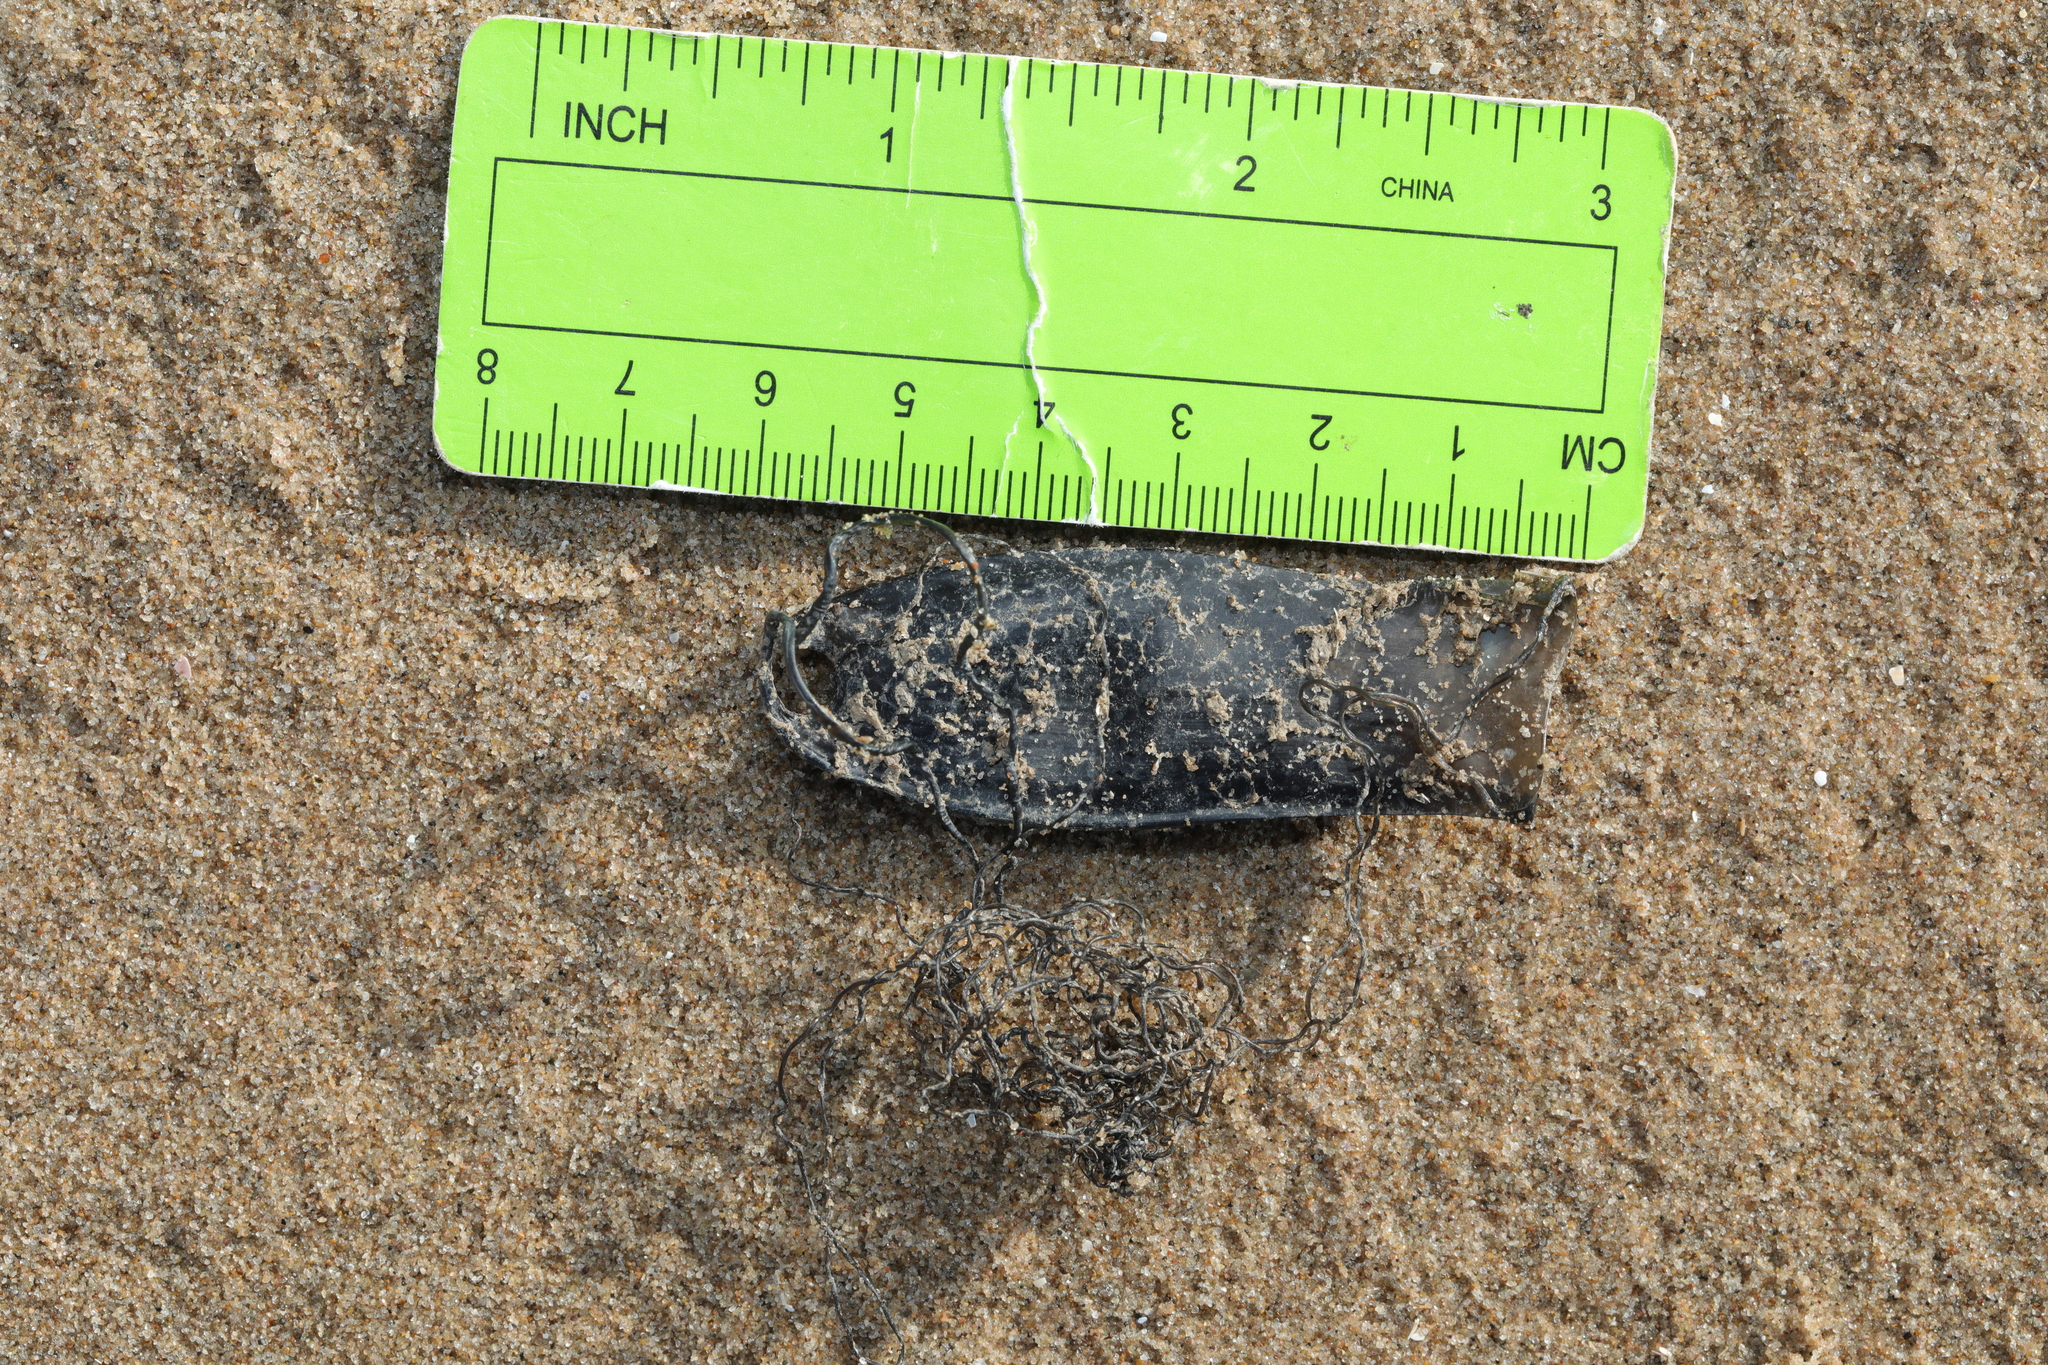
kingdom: Animalia
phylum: Chordata
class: Elasmobranchii
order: Carcharhiniformes
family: Scyliorhinidae
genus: Scyliorhinus
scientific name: Scyliorhinus canicula
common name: Lesser spotted dogfish
